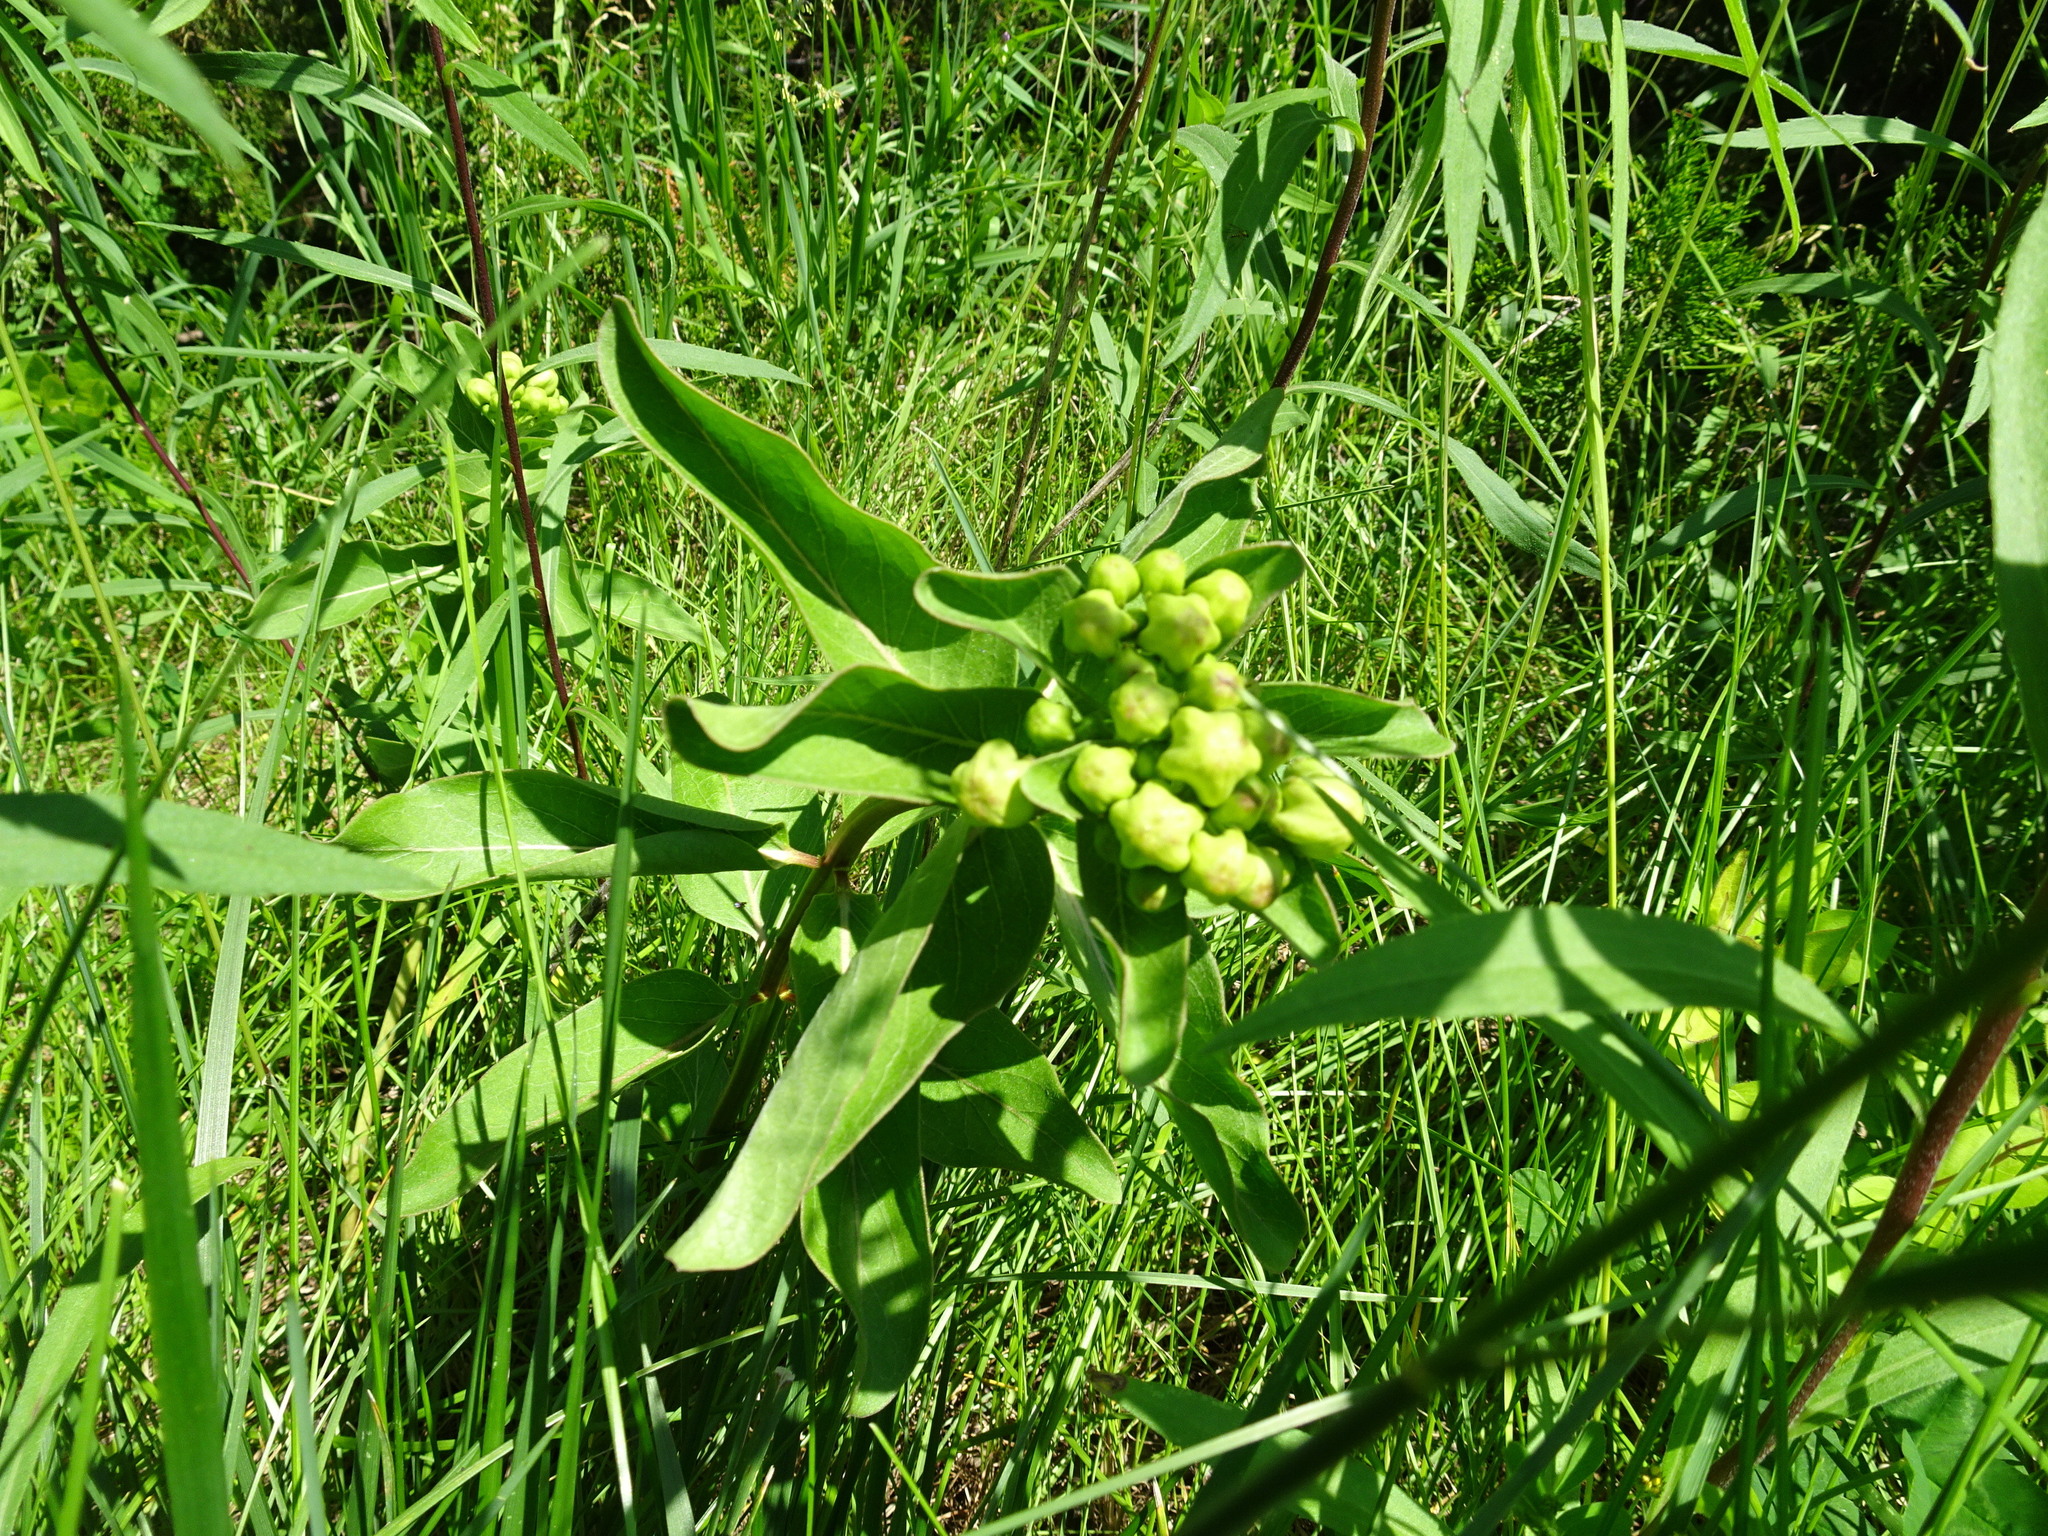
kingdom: Plantae
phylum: Tracheophyta
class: Magnoliopsida
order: Gentianales
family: Apocynaceae
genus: Asclepias
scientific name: Asclepias viridis
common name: Antelope-horns
